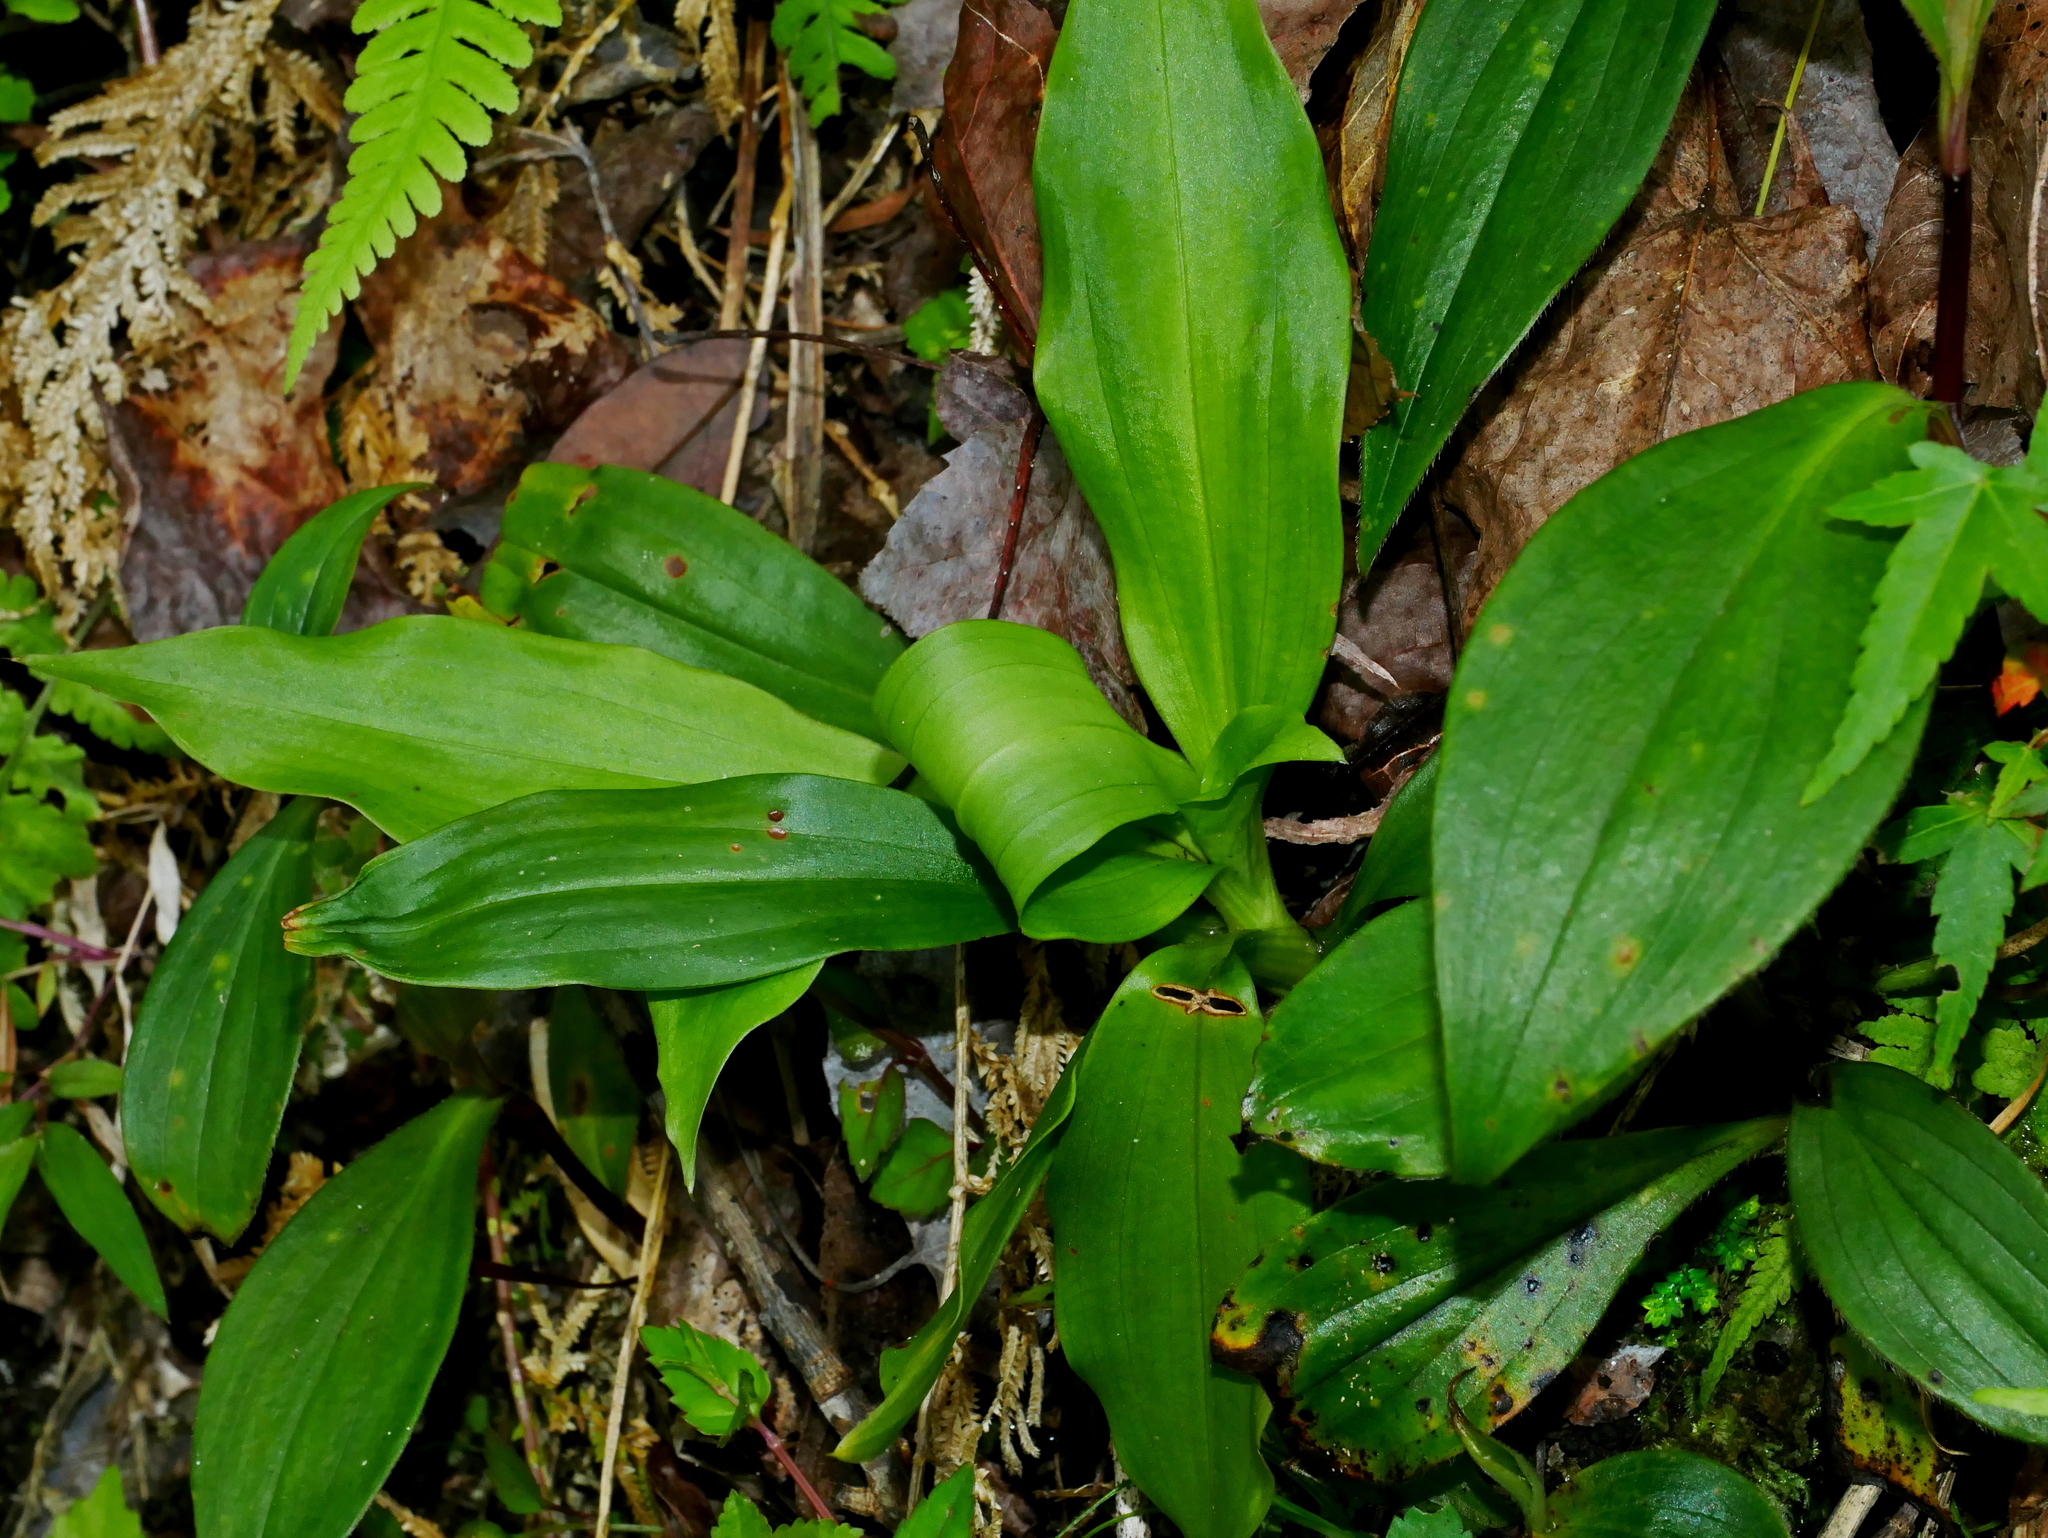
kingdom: Plantae
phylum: Tracheophyta
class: Liliopsida
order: Asparagales
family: Orchidaceae
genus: Goodyera
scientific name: Goodyera procera
